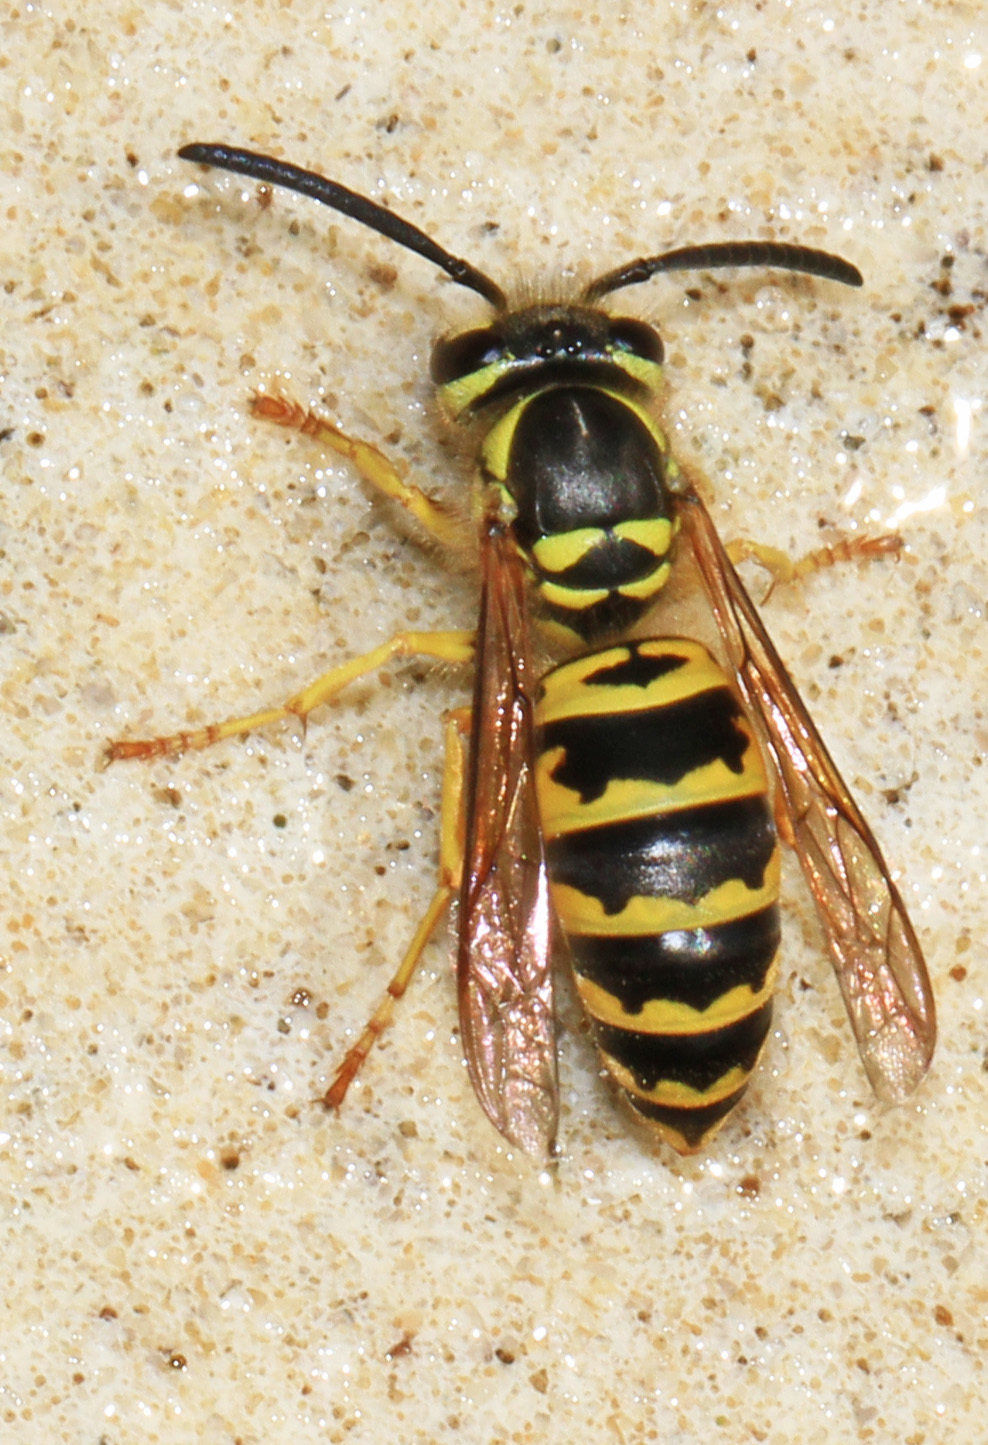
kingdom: Animalia
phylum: Arthropoda
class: Insecta
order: Hymenoptera
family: Vespidae
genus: Vespula
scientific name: Vespula maculifrons
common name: Eastern yellowjacket
